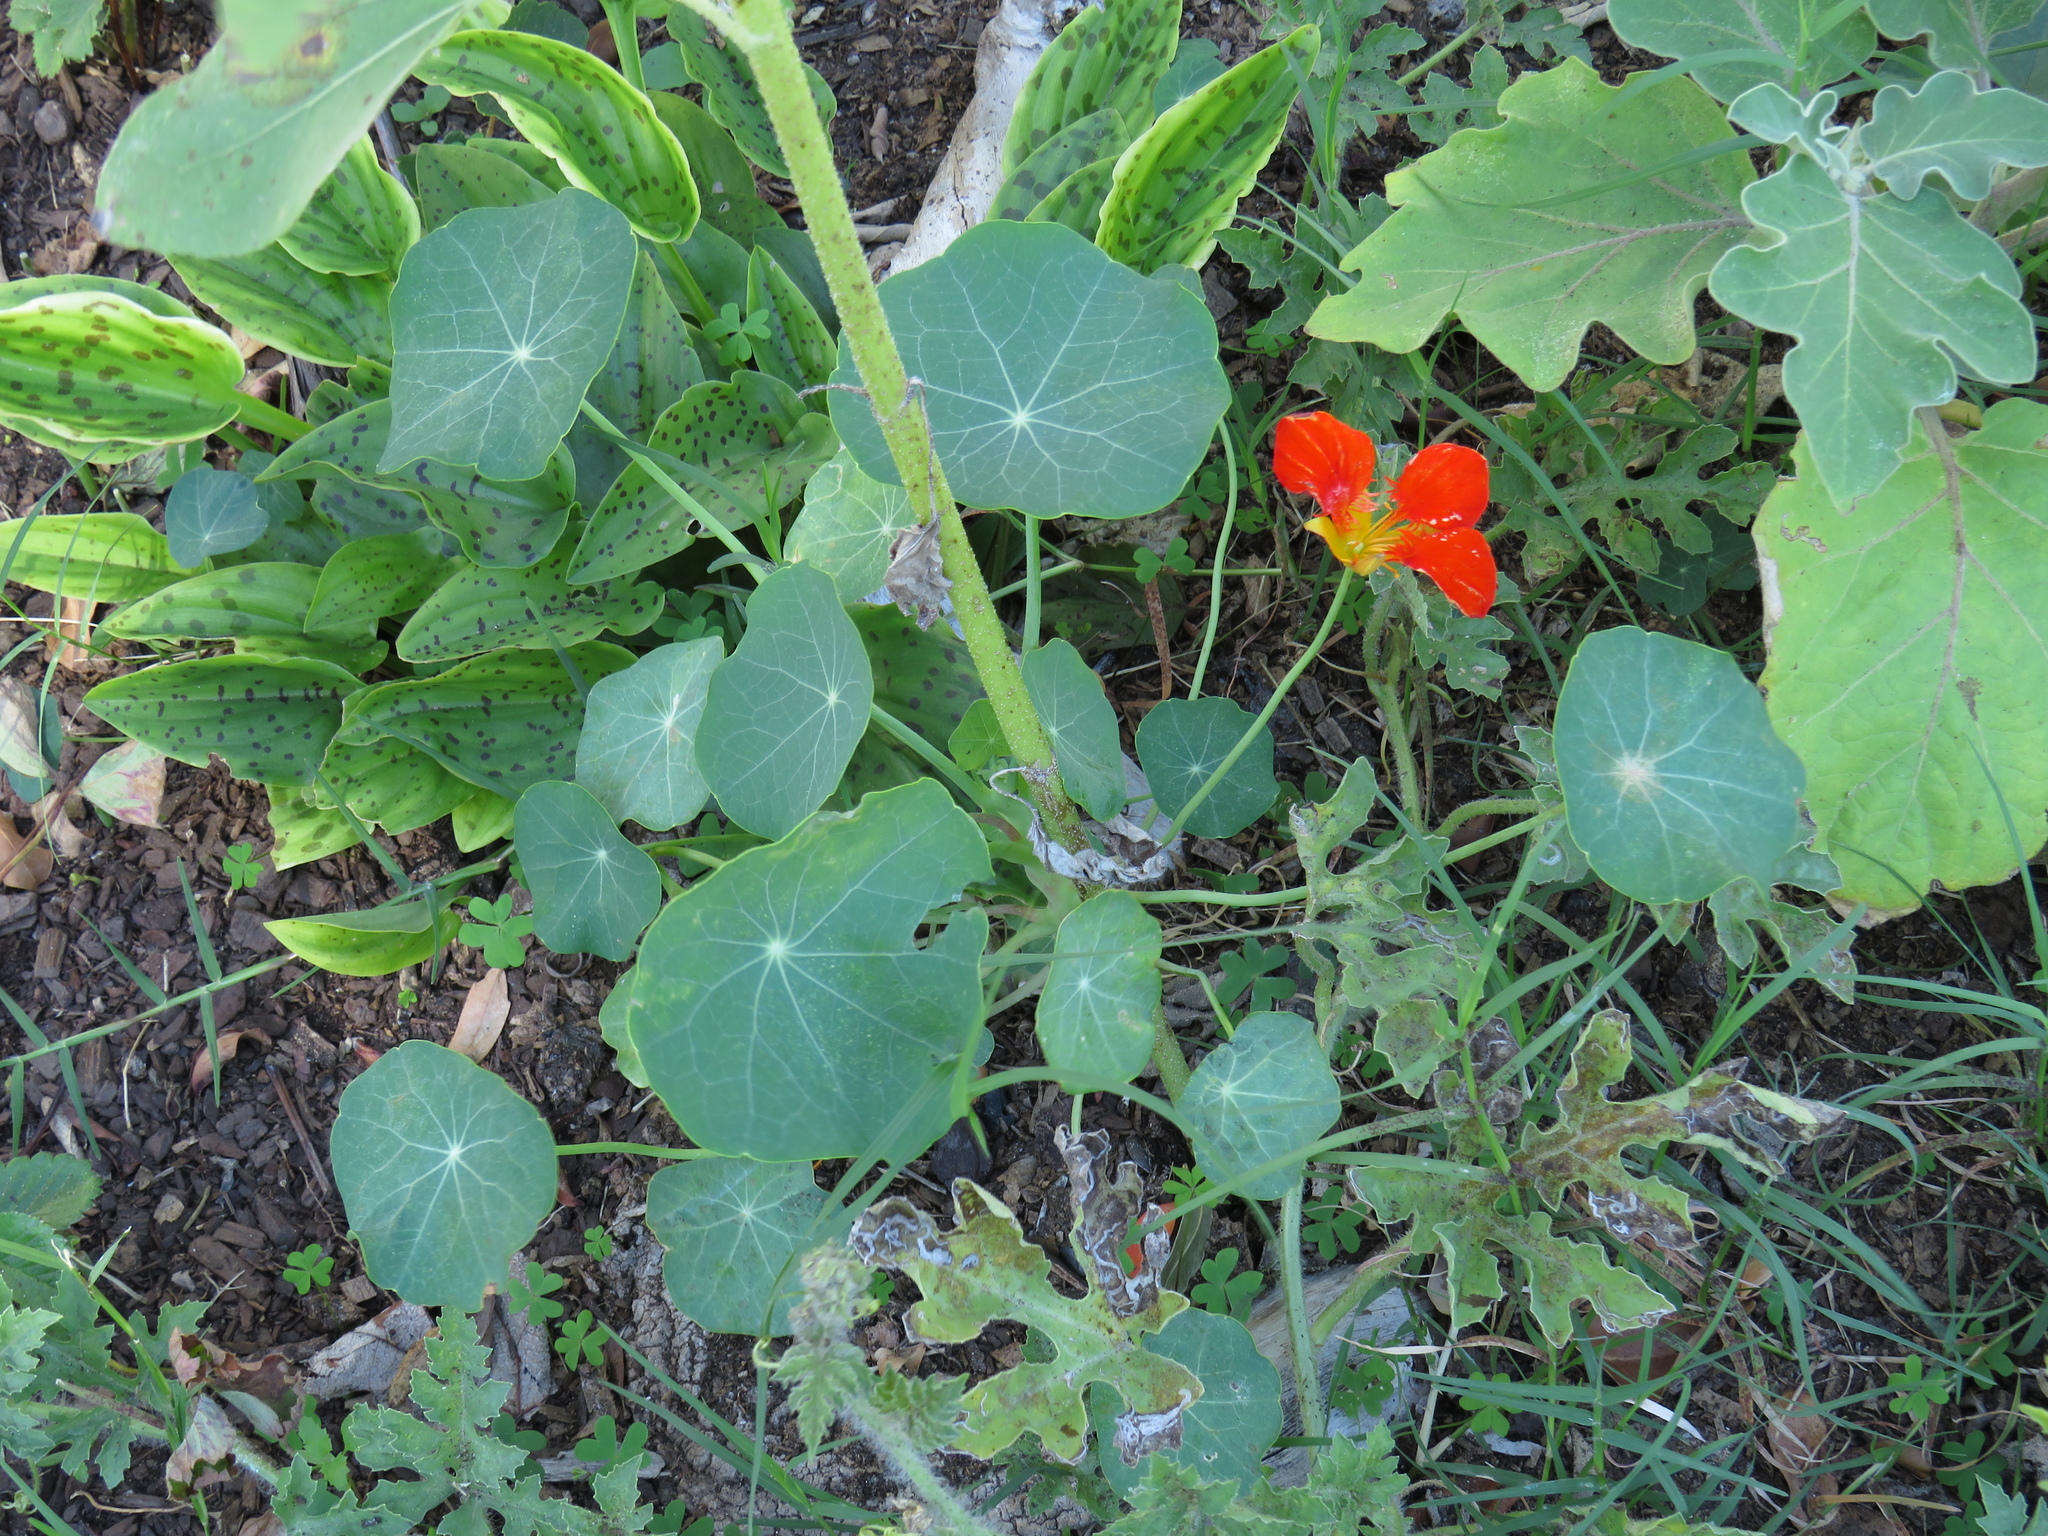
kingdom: Plantae
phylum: Tracheophyta
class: Magnoliopsida
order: Brassicales
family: Tropaeolaceae
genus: Tropaeolum
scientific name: Tropaeolum majus
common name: Nasturtium
